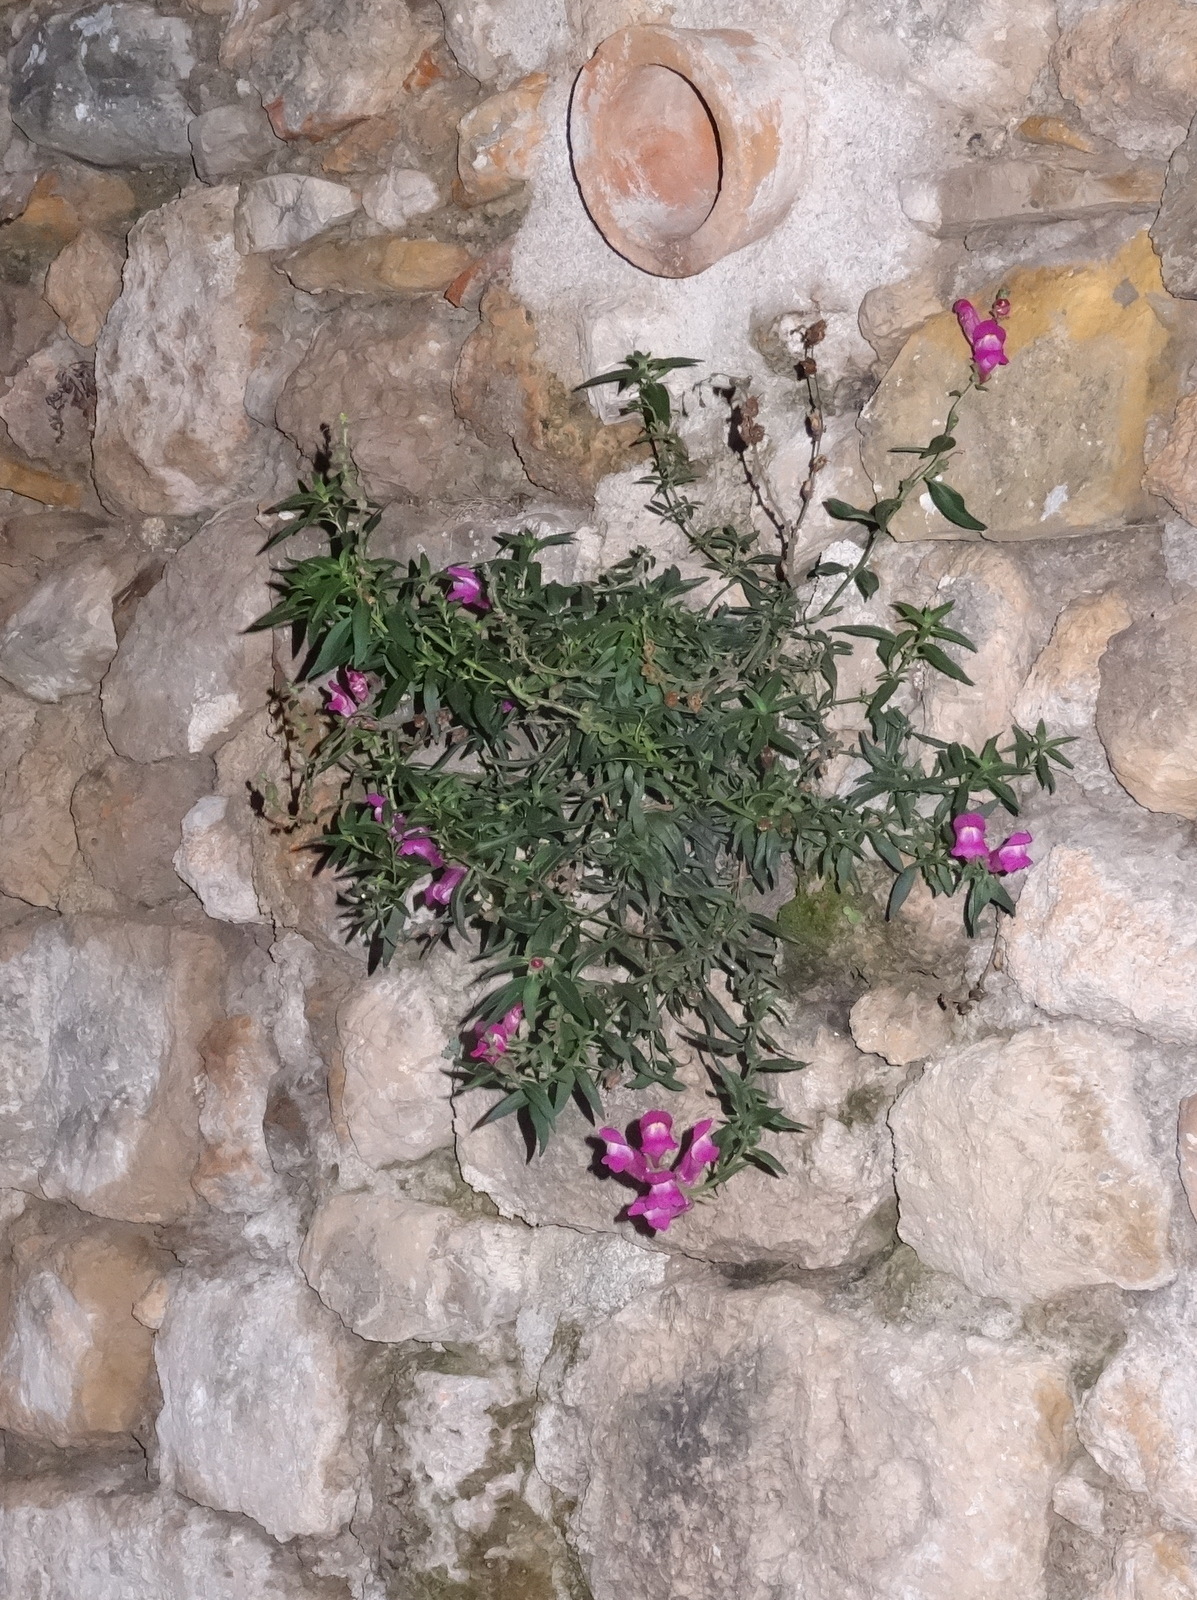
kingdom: Plantae
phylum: Tracheophyta
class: Magnoliopsida
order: Lamiales
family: Plantaginaceae
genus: Antirrhinum
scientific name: Antirrhinum majus
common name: Snapdragon
